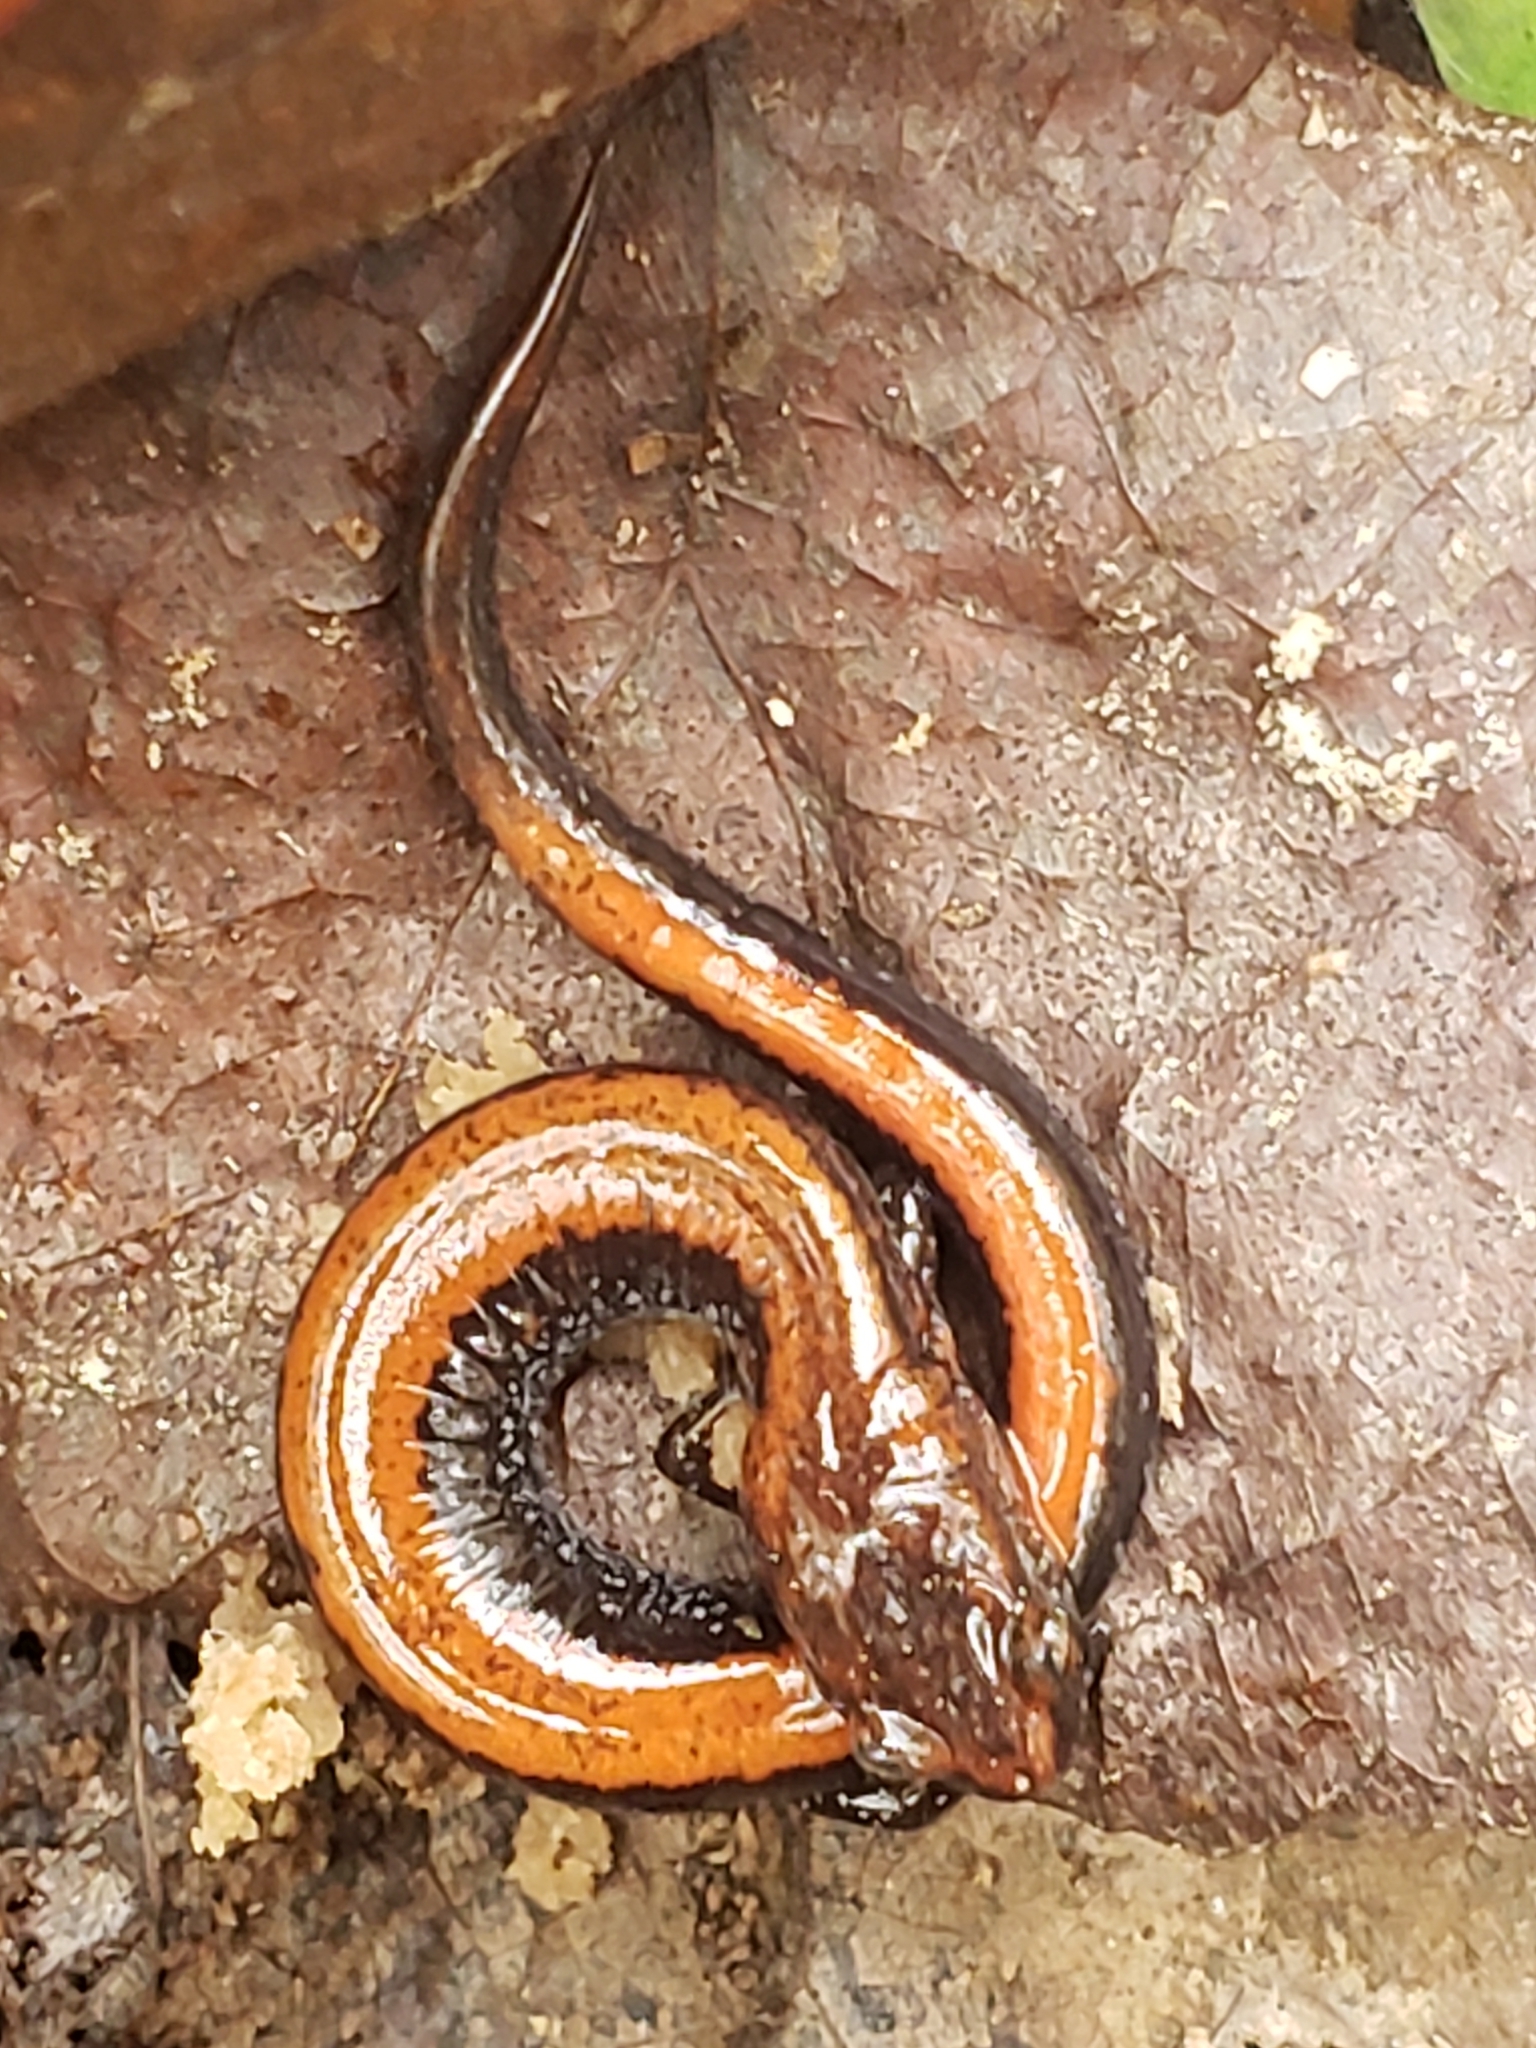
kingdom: Animalia
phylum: Chordata
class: Amphibia
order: Caudata
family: Plethodontidae
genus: Plethodon
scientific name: Plethodon cinereus
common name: Redback salamander
